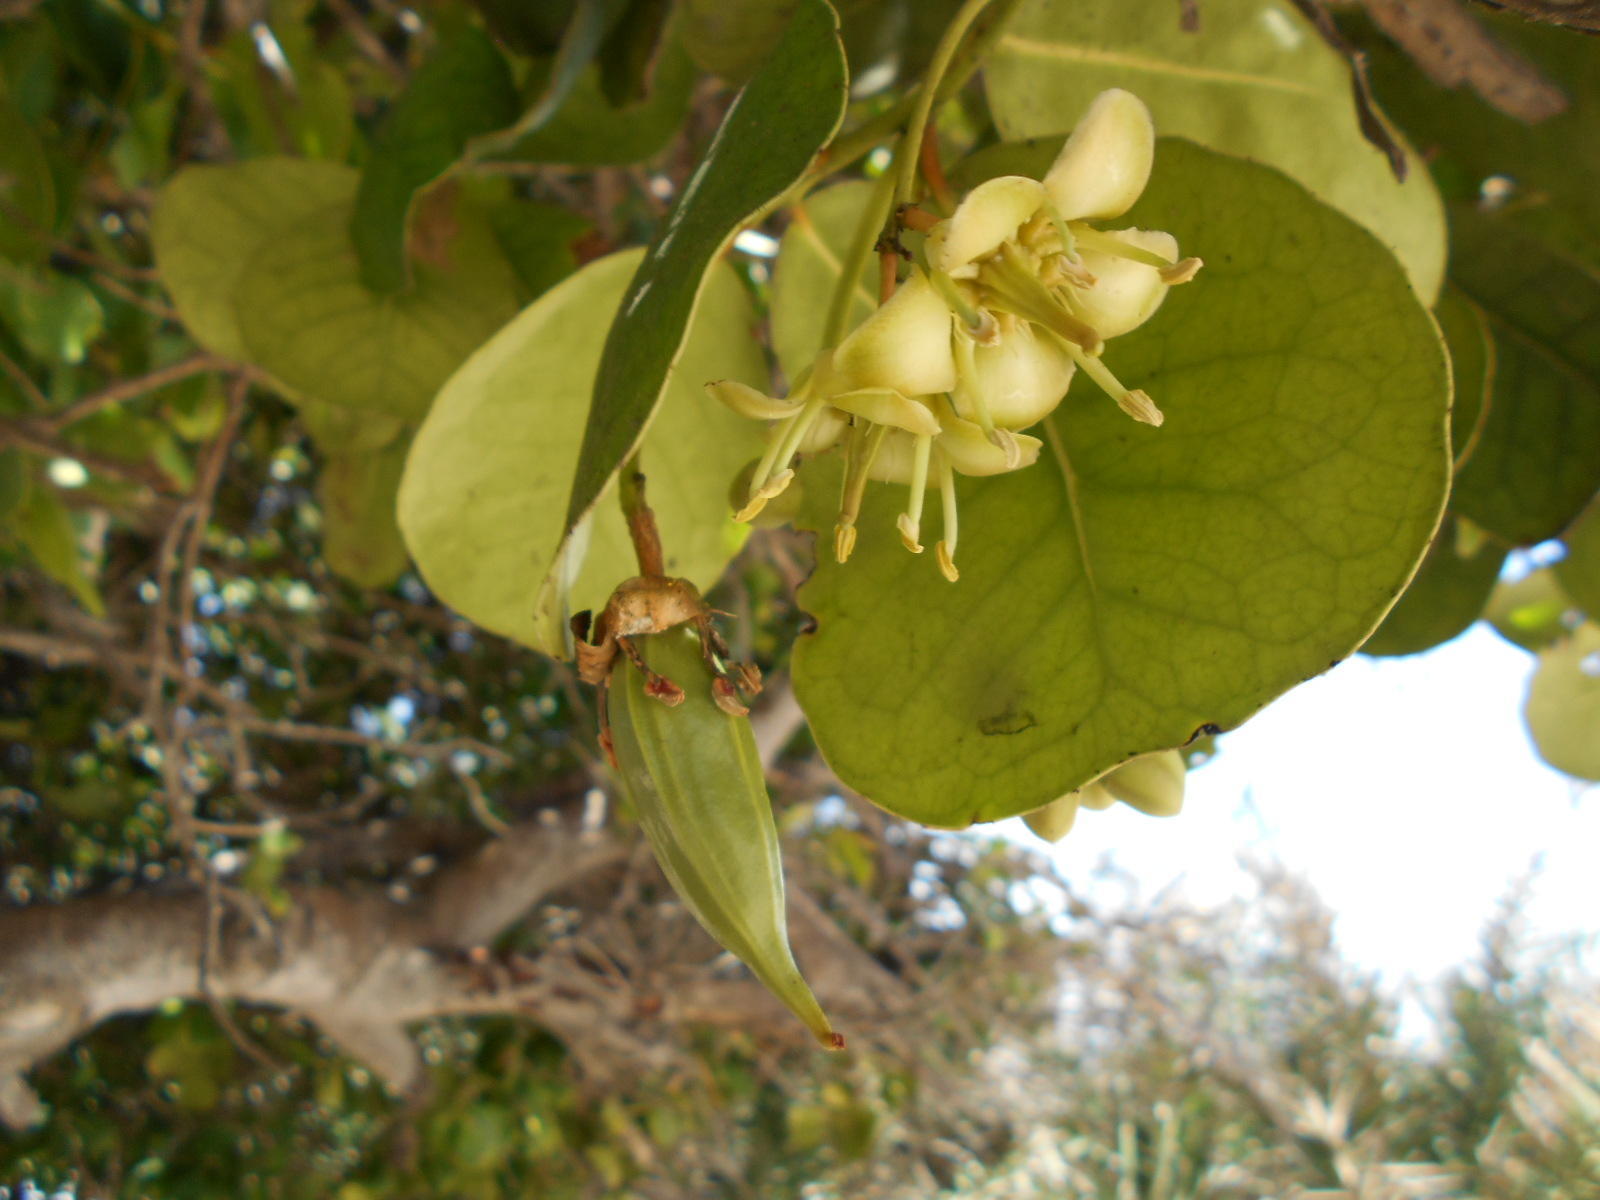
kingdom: Plantae
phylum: Tracheophyta
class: Magnoliopsida
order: Celastrales
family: Celastraceae
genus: Brexia
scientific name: Brexia madagascariensis
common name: Brexia
